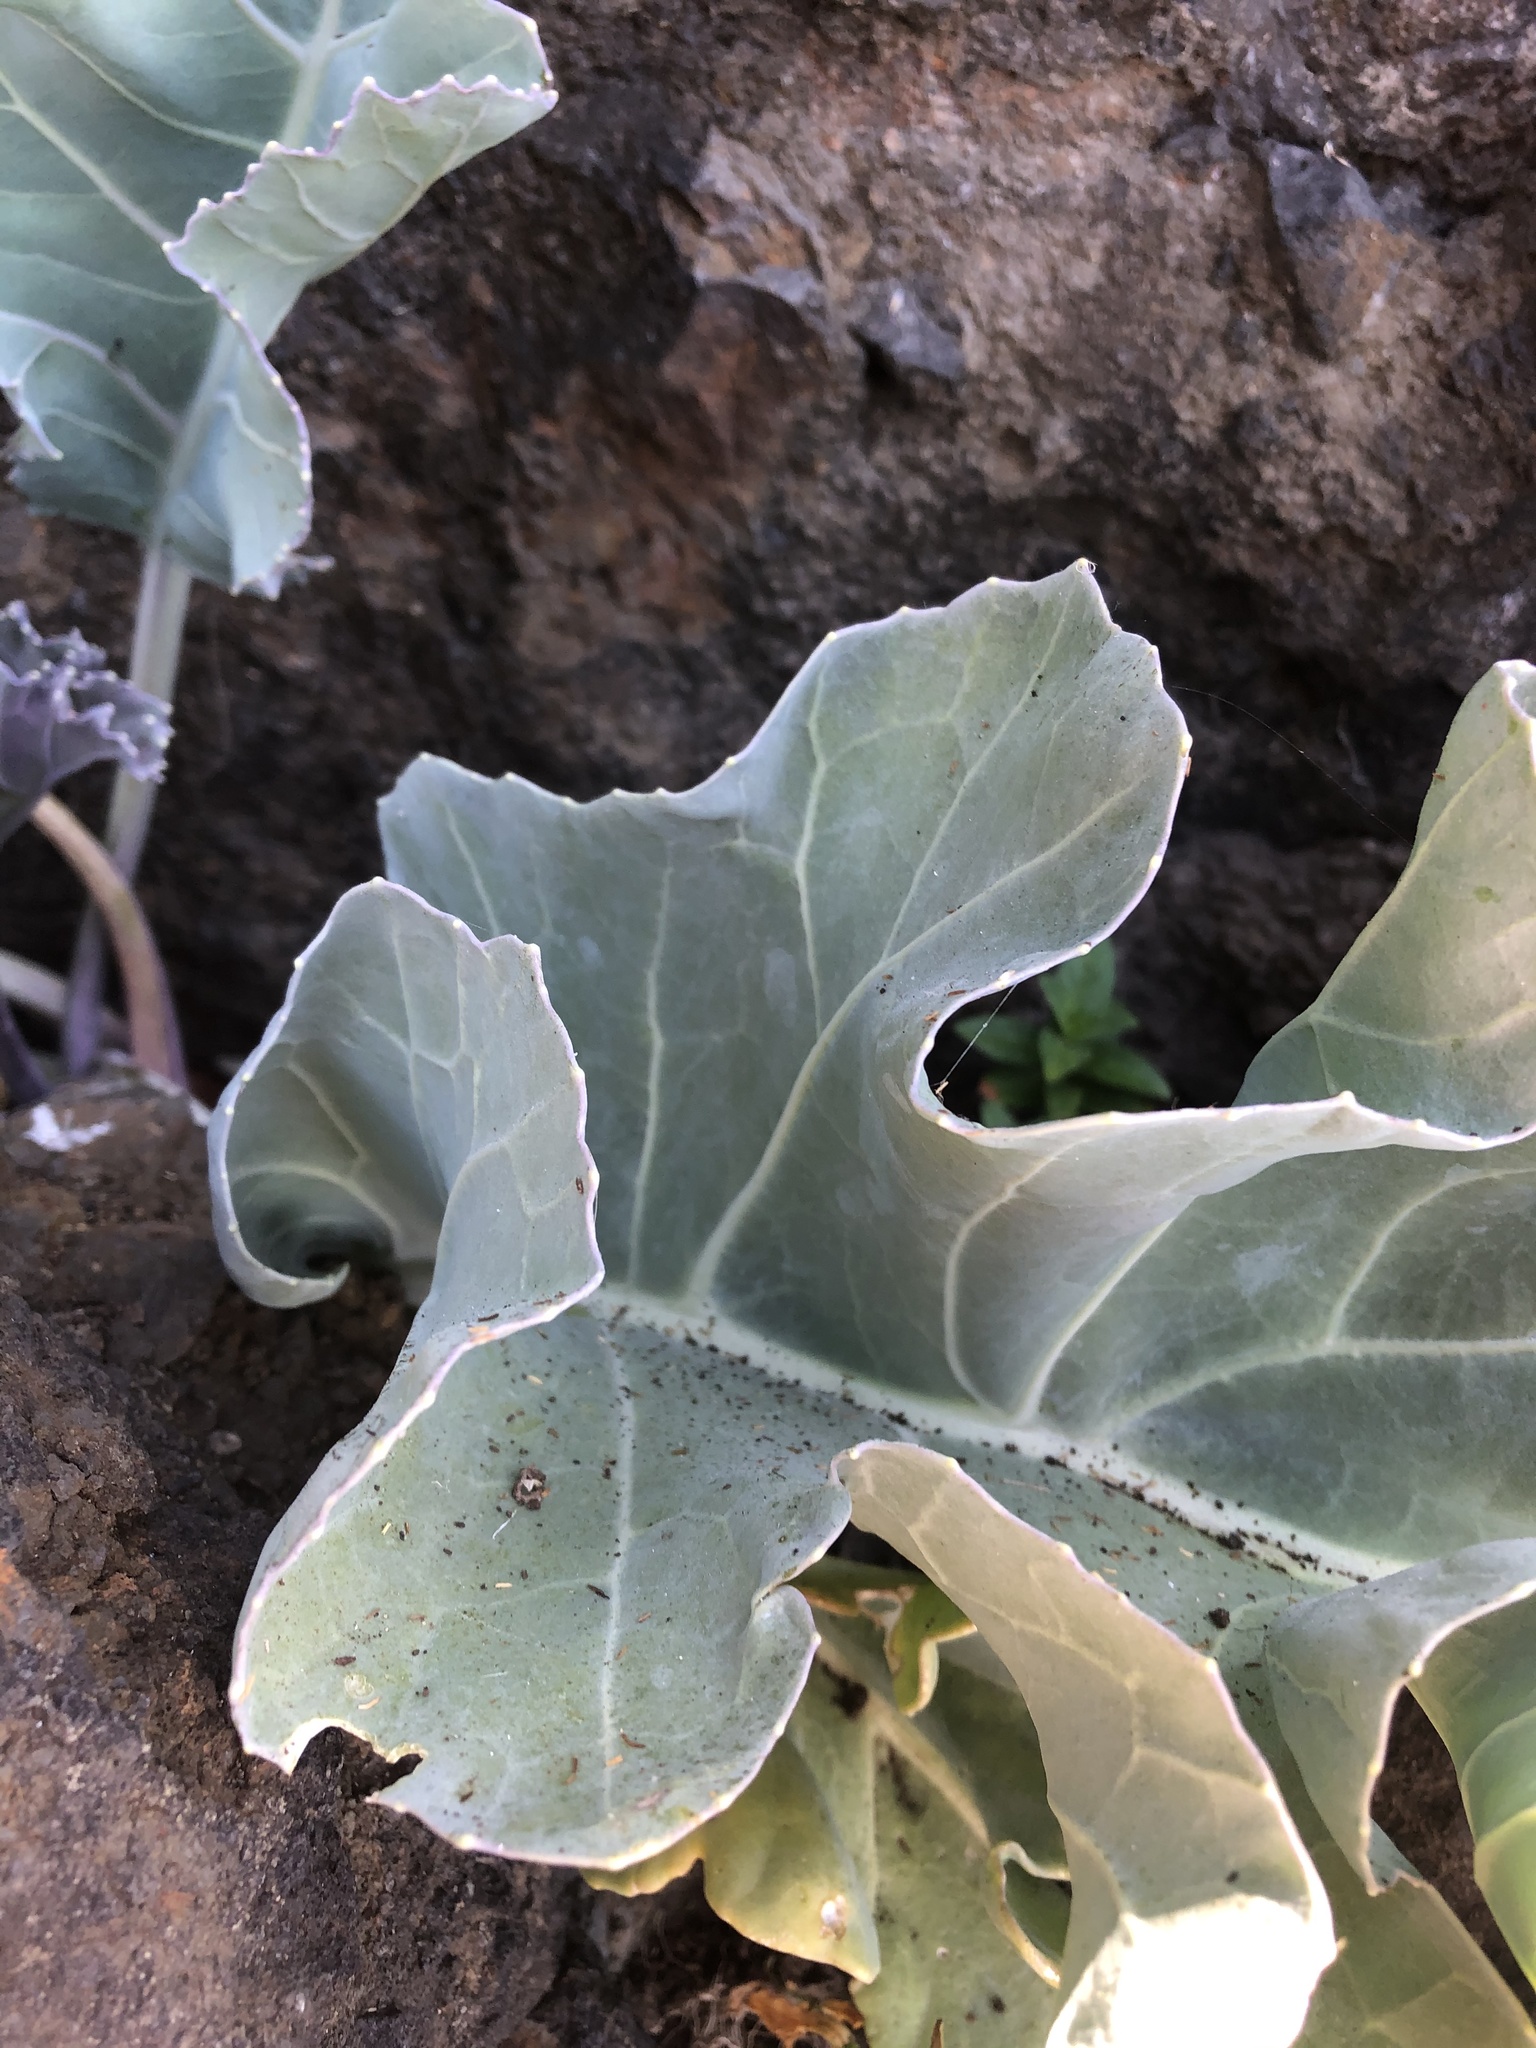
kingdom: Plantae
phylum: Tracheophyta
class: Magnoliopsida
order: Brassicales
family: Brassicaceae
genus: Crambe
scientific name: Crambe maritima
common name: Sea-kale
